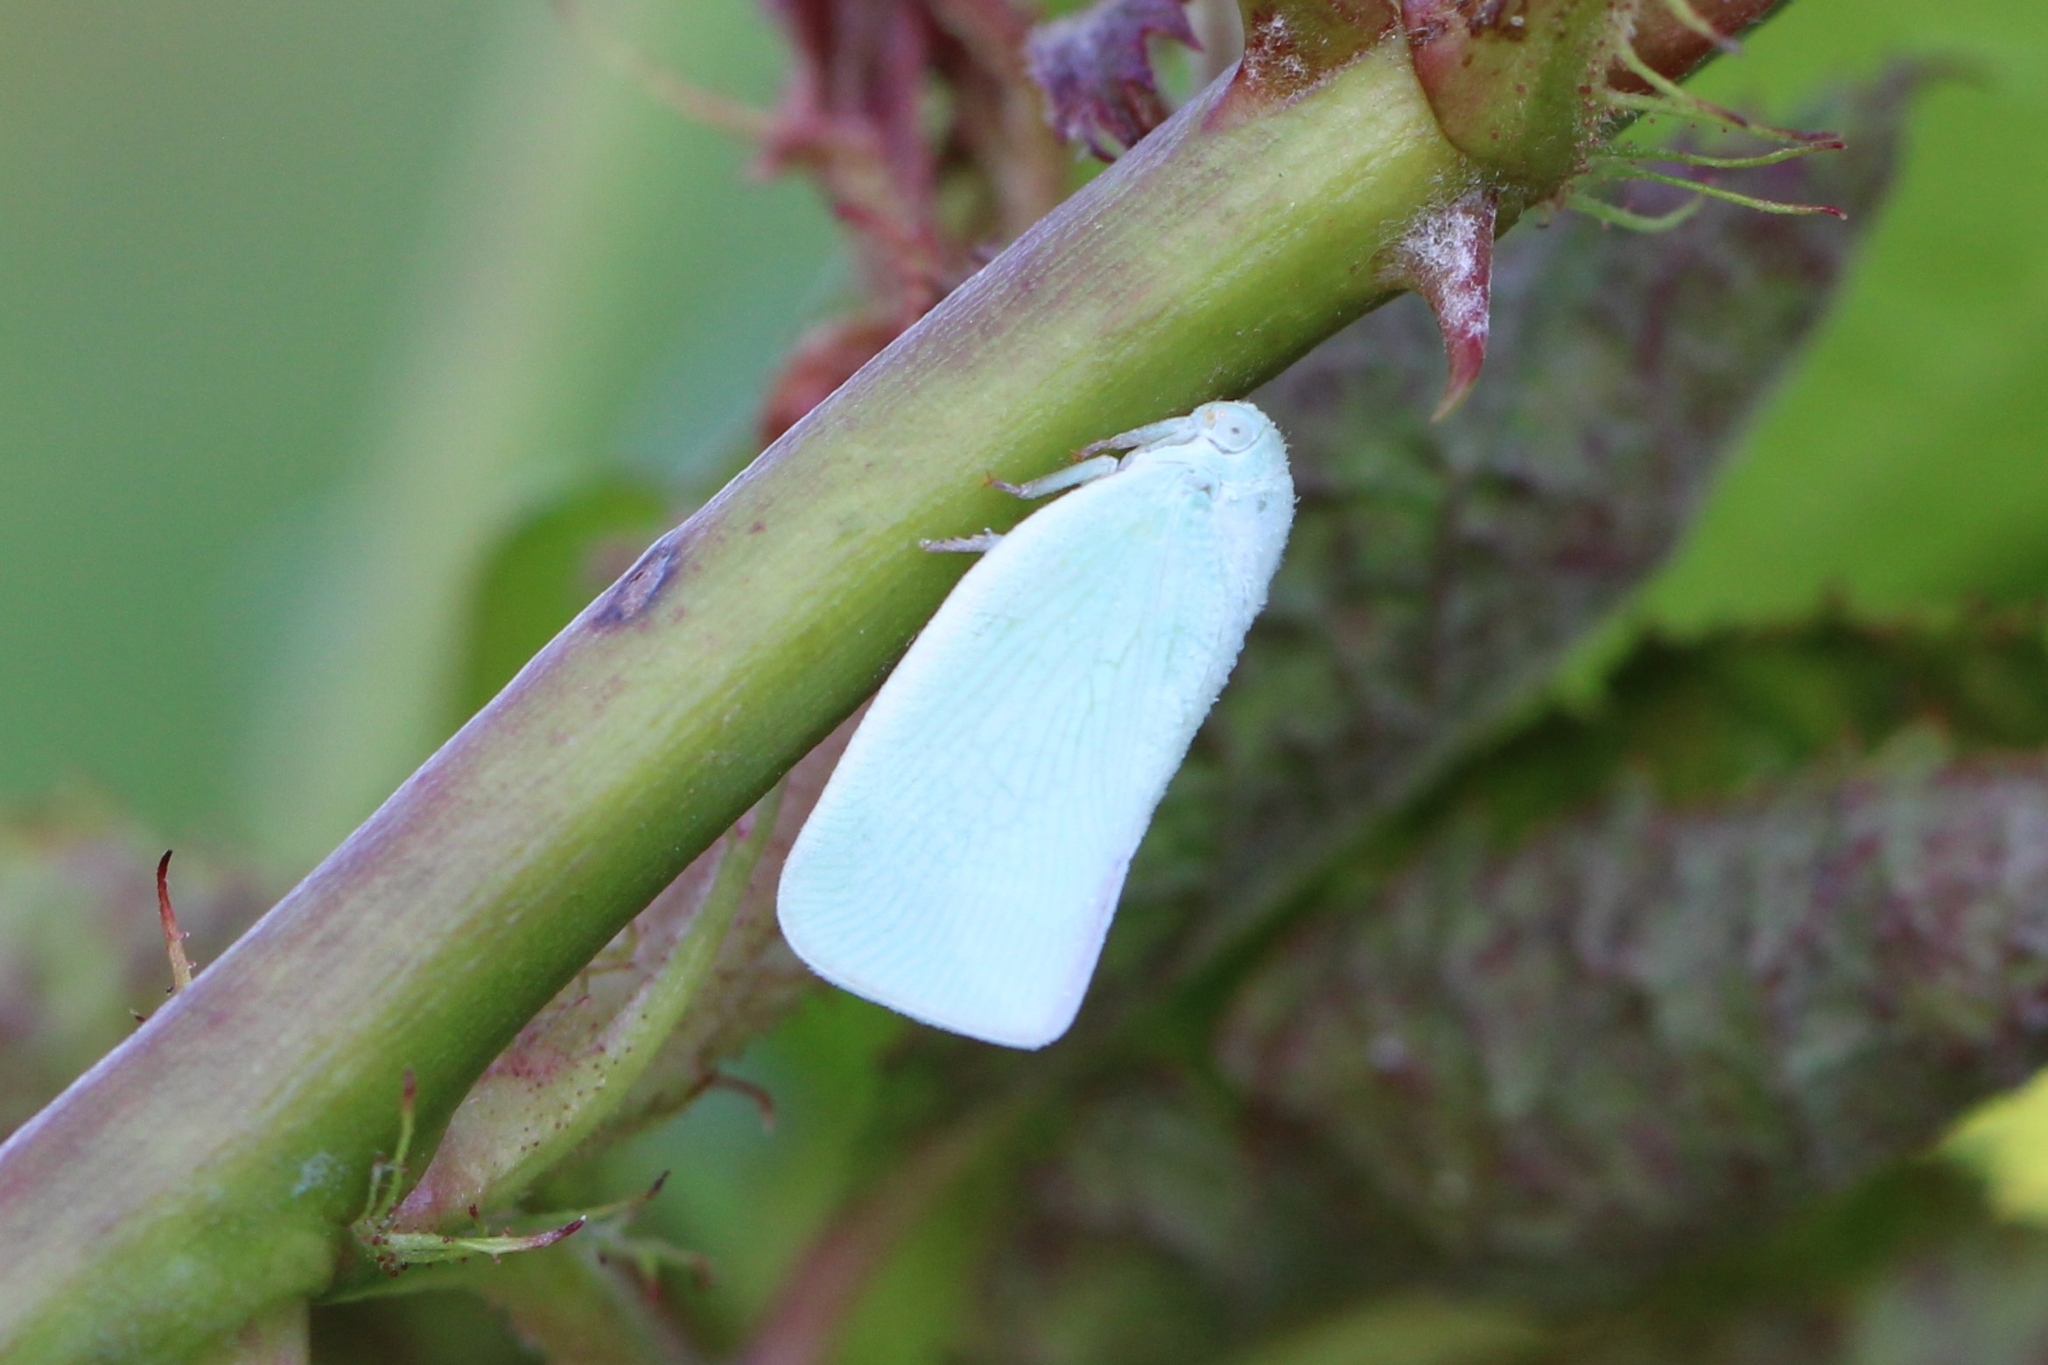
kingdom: Animalia
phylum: Arthropoda
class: Insecta
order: Hemiptera
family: Flatidae
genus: Flatormenis
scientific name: Flatormenis proxima
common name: Northern flatid planthopper
